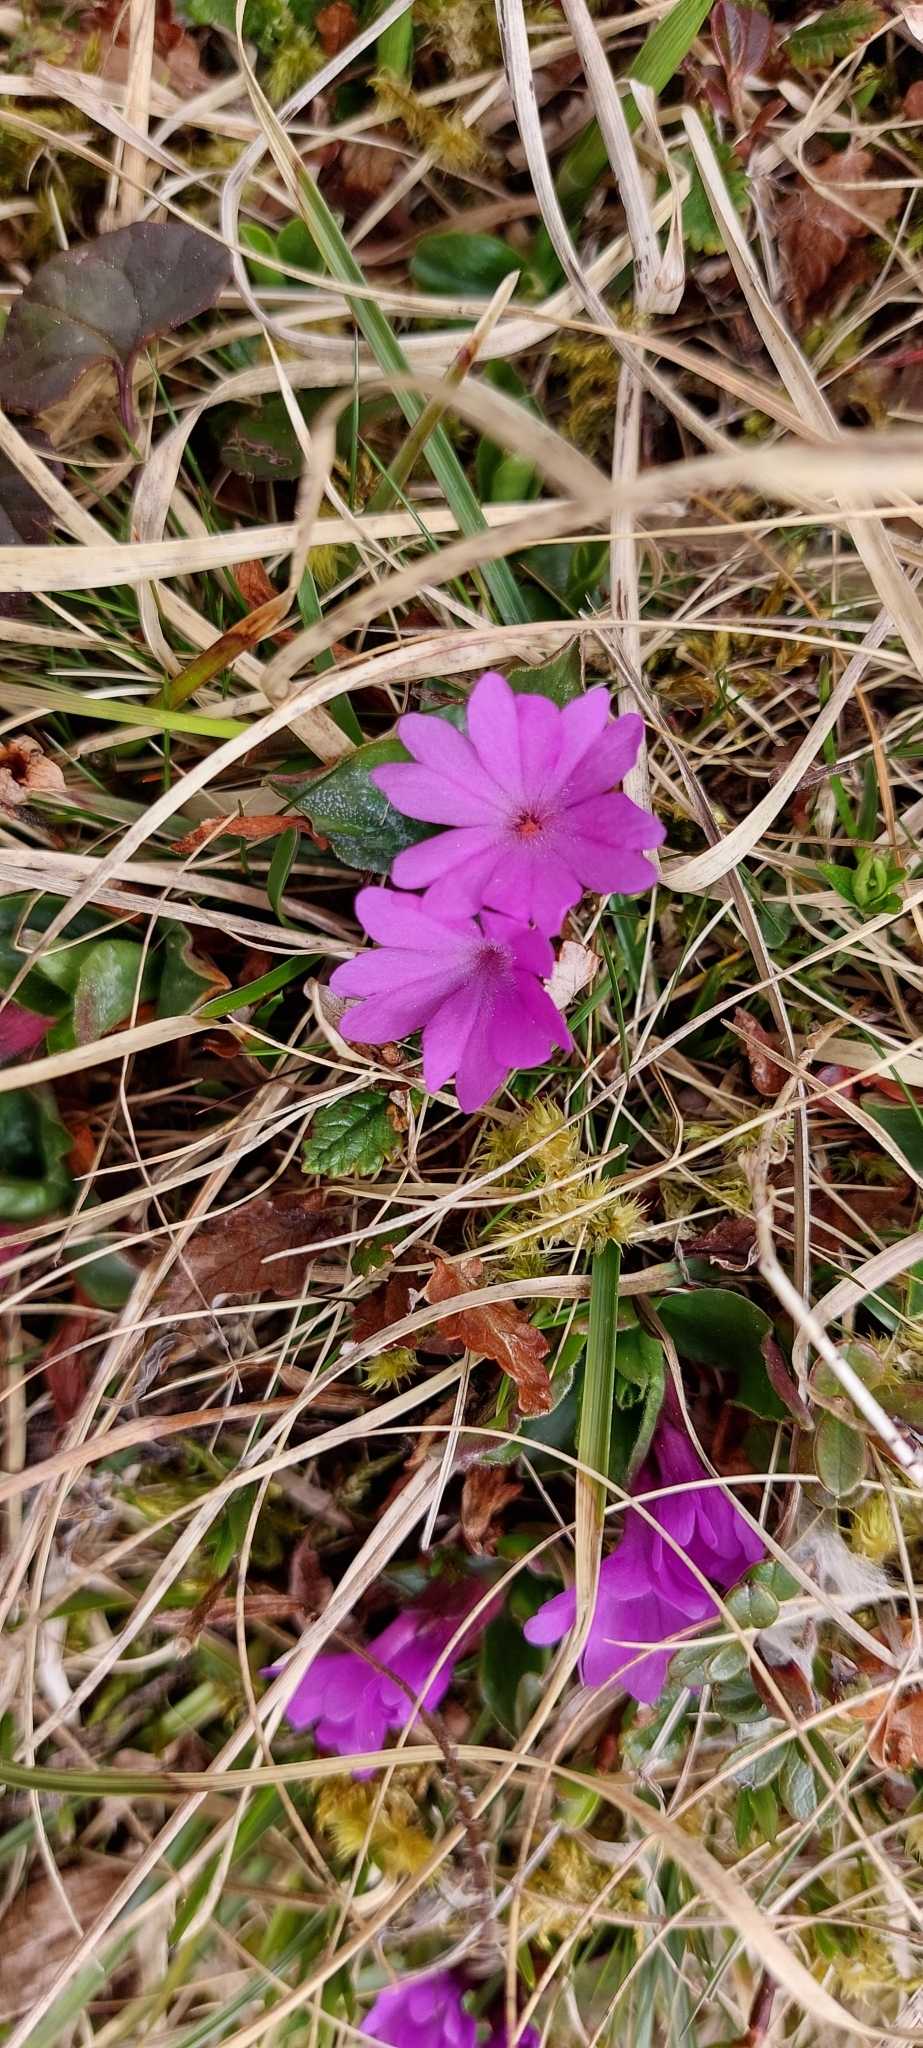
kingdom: Plantae
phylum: Tracheophyta
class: Magnoliopsida
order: Ericales
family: Primulaceae
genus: Primula
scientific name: Primula integrifolia
